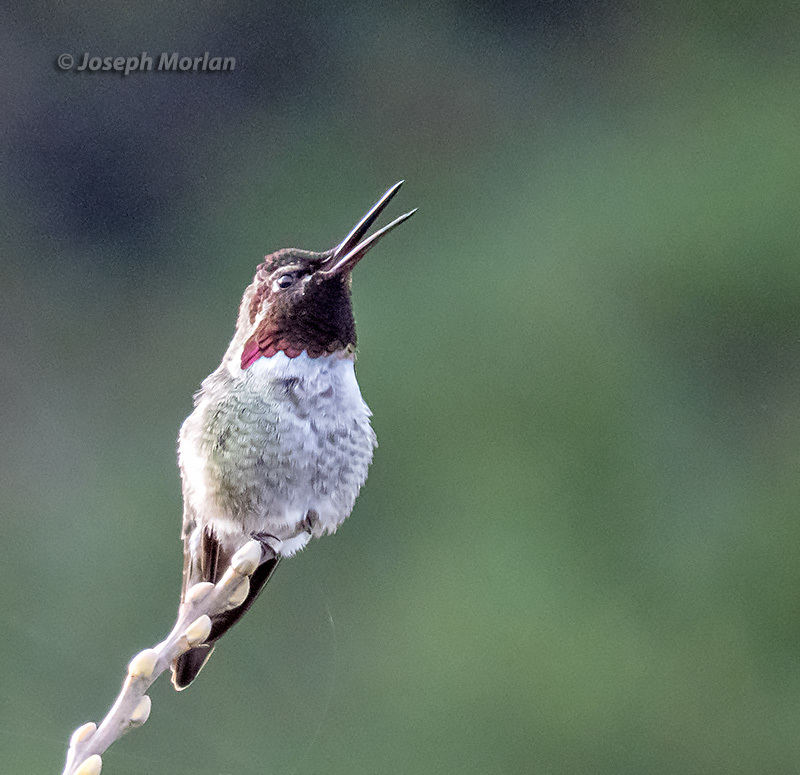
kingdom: Animalia
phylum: Chordata
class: Aves
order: Apodiformes
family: Trochilidae
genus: Calypte
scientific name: Calypte anna
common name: Anna's hummingbird
